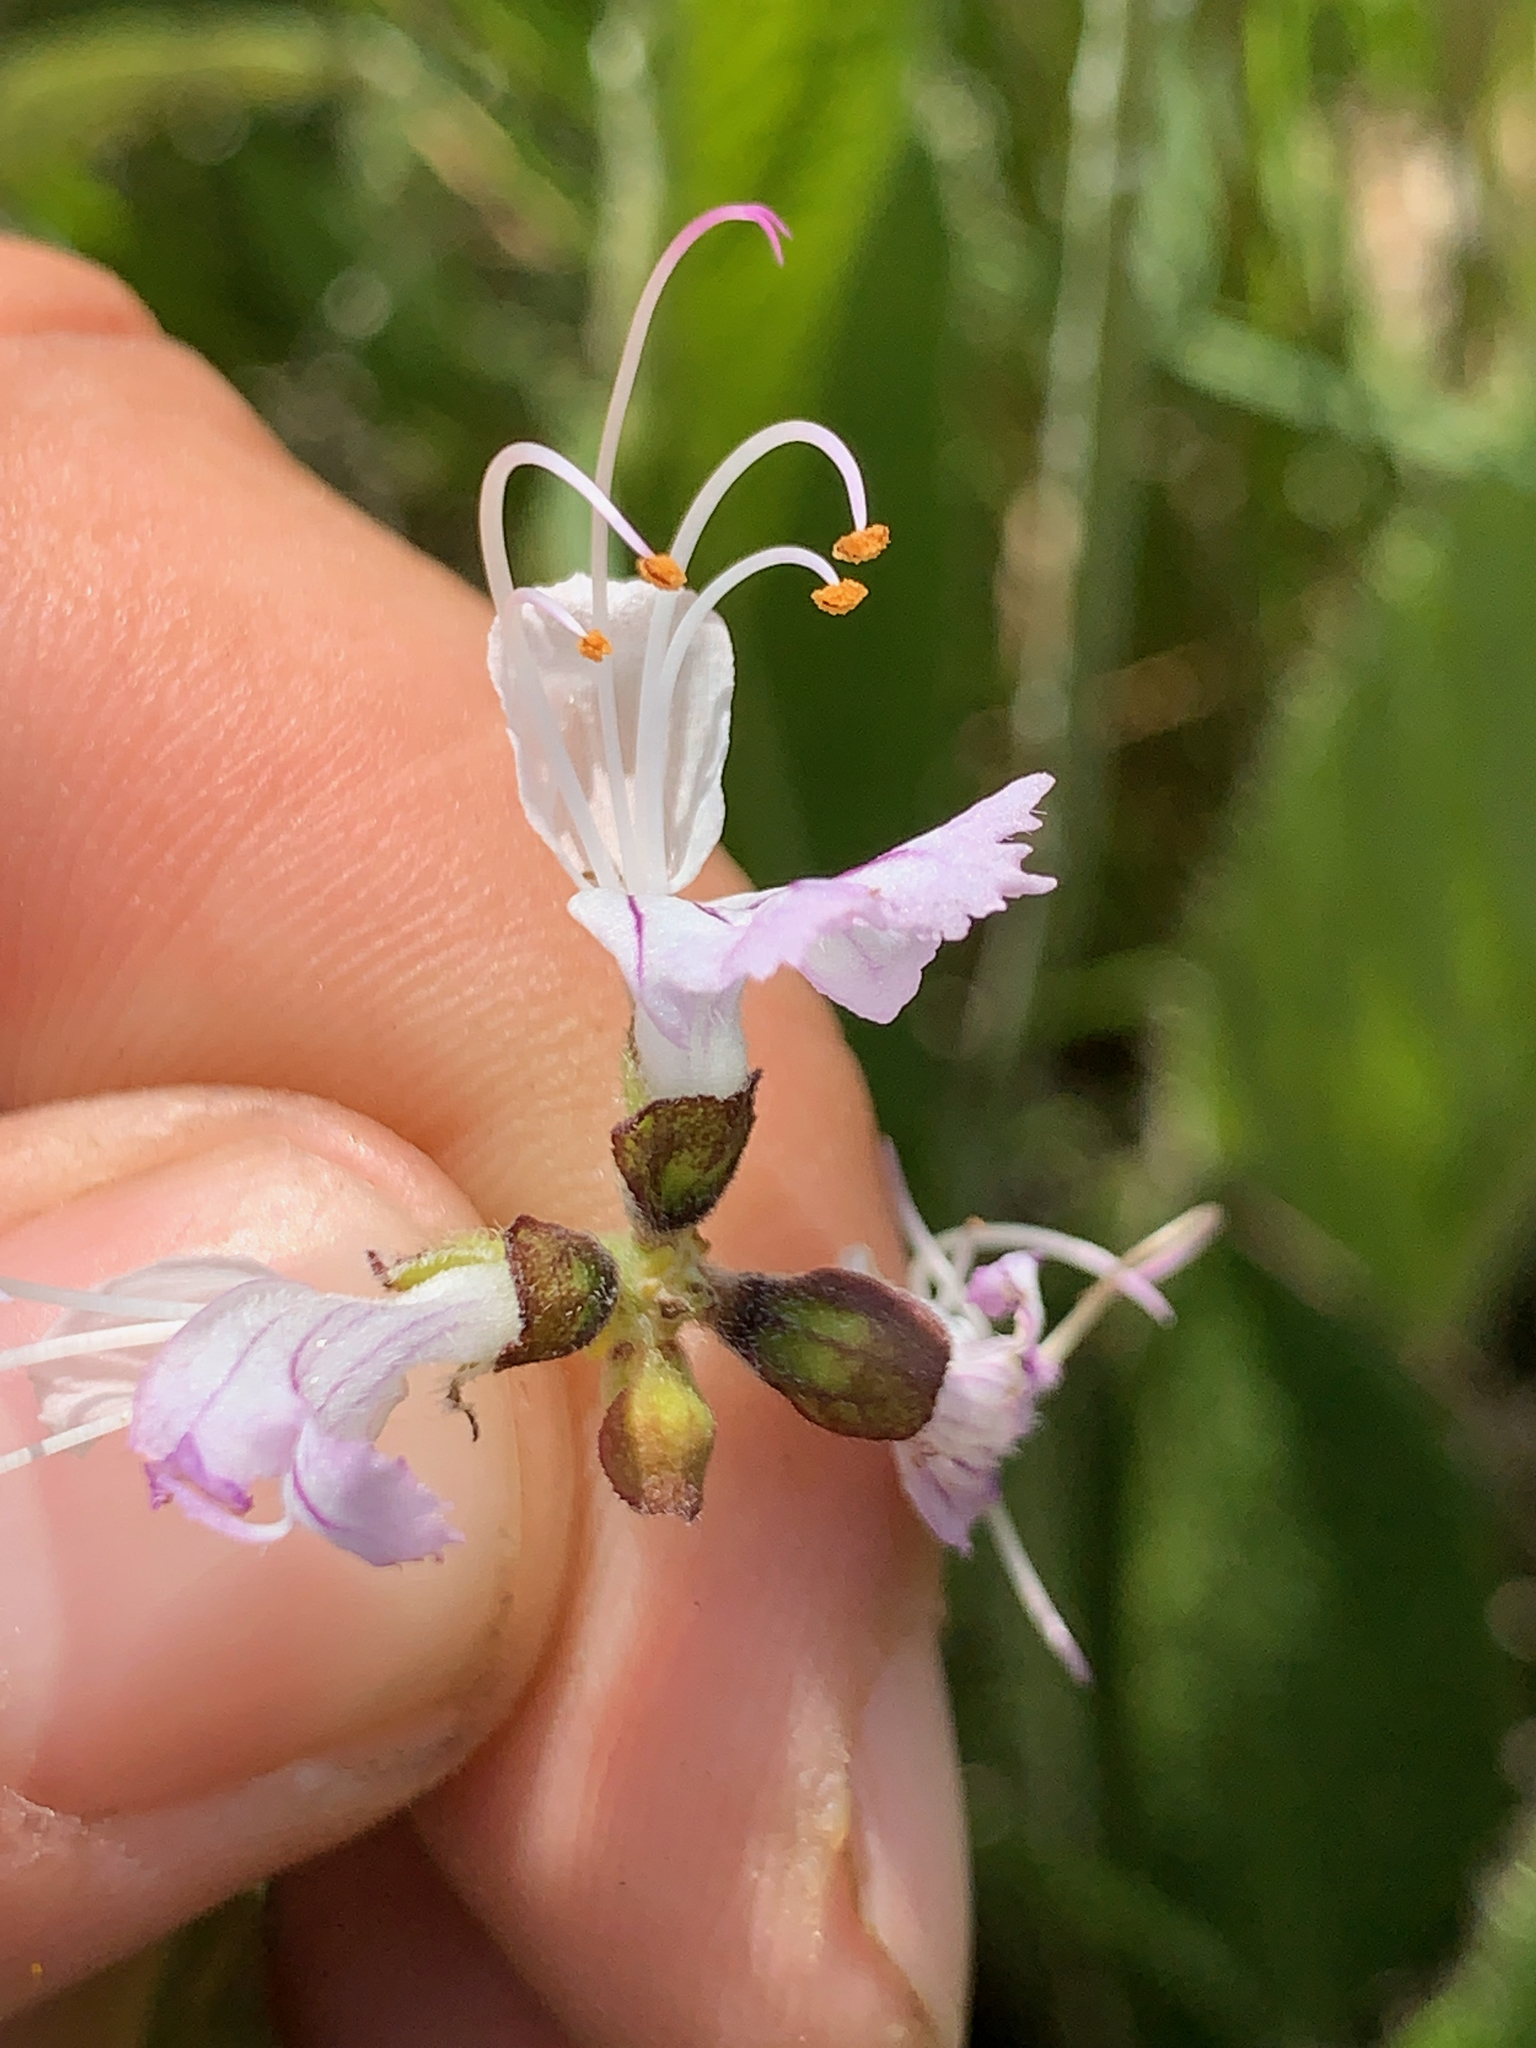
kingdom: Plantae
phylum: Tracheophyta
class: Magnoliopsida
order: Lamiales
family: Lamiaceae
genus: Ocimum
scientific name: Ocimum obovatum
